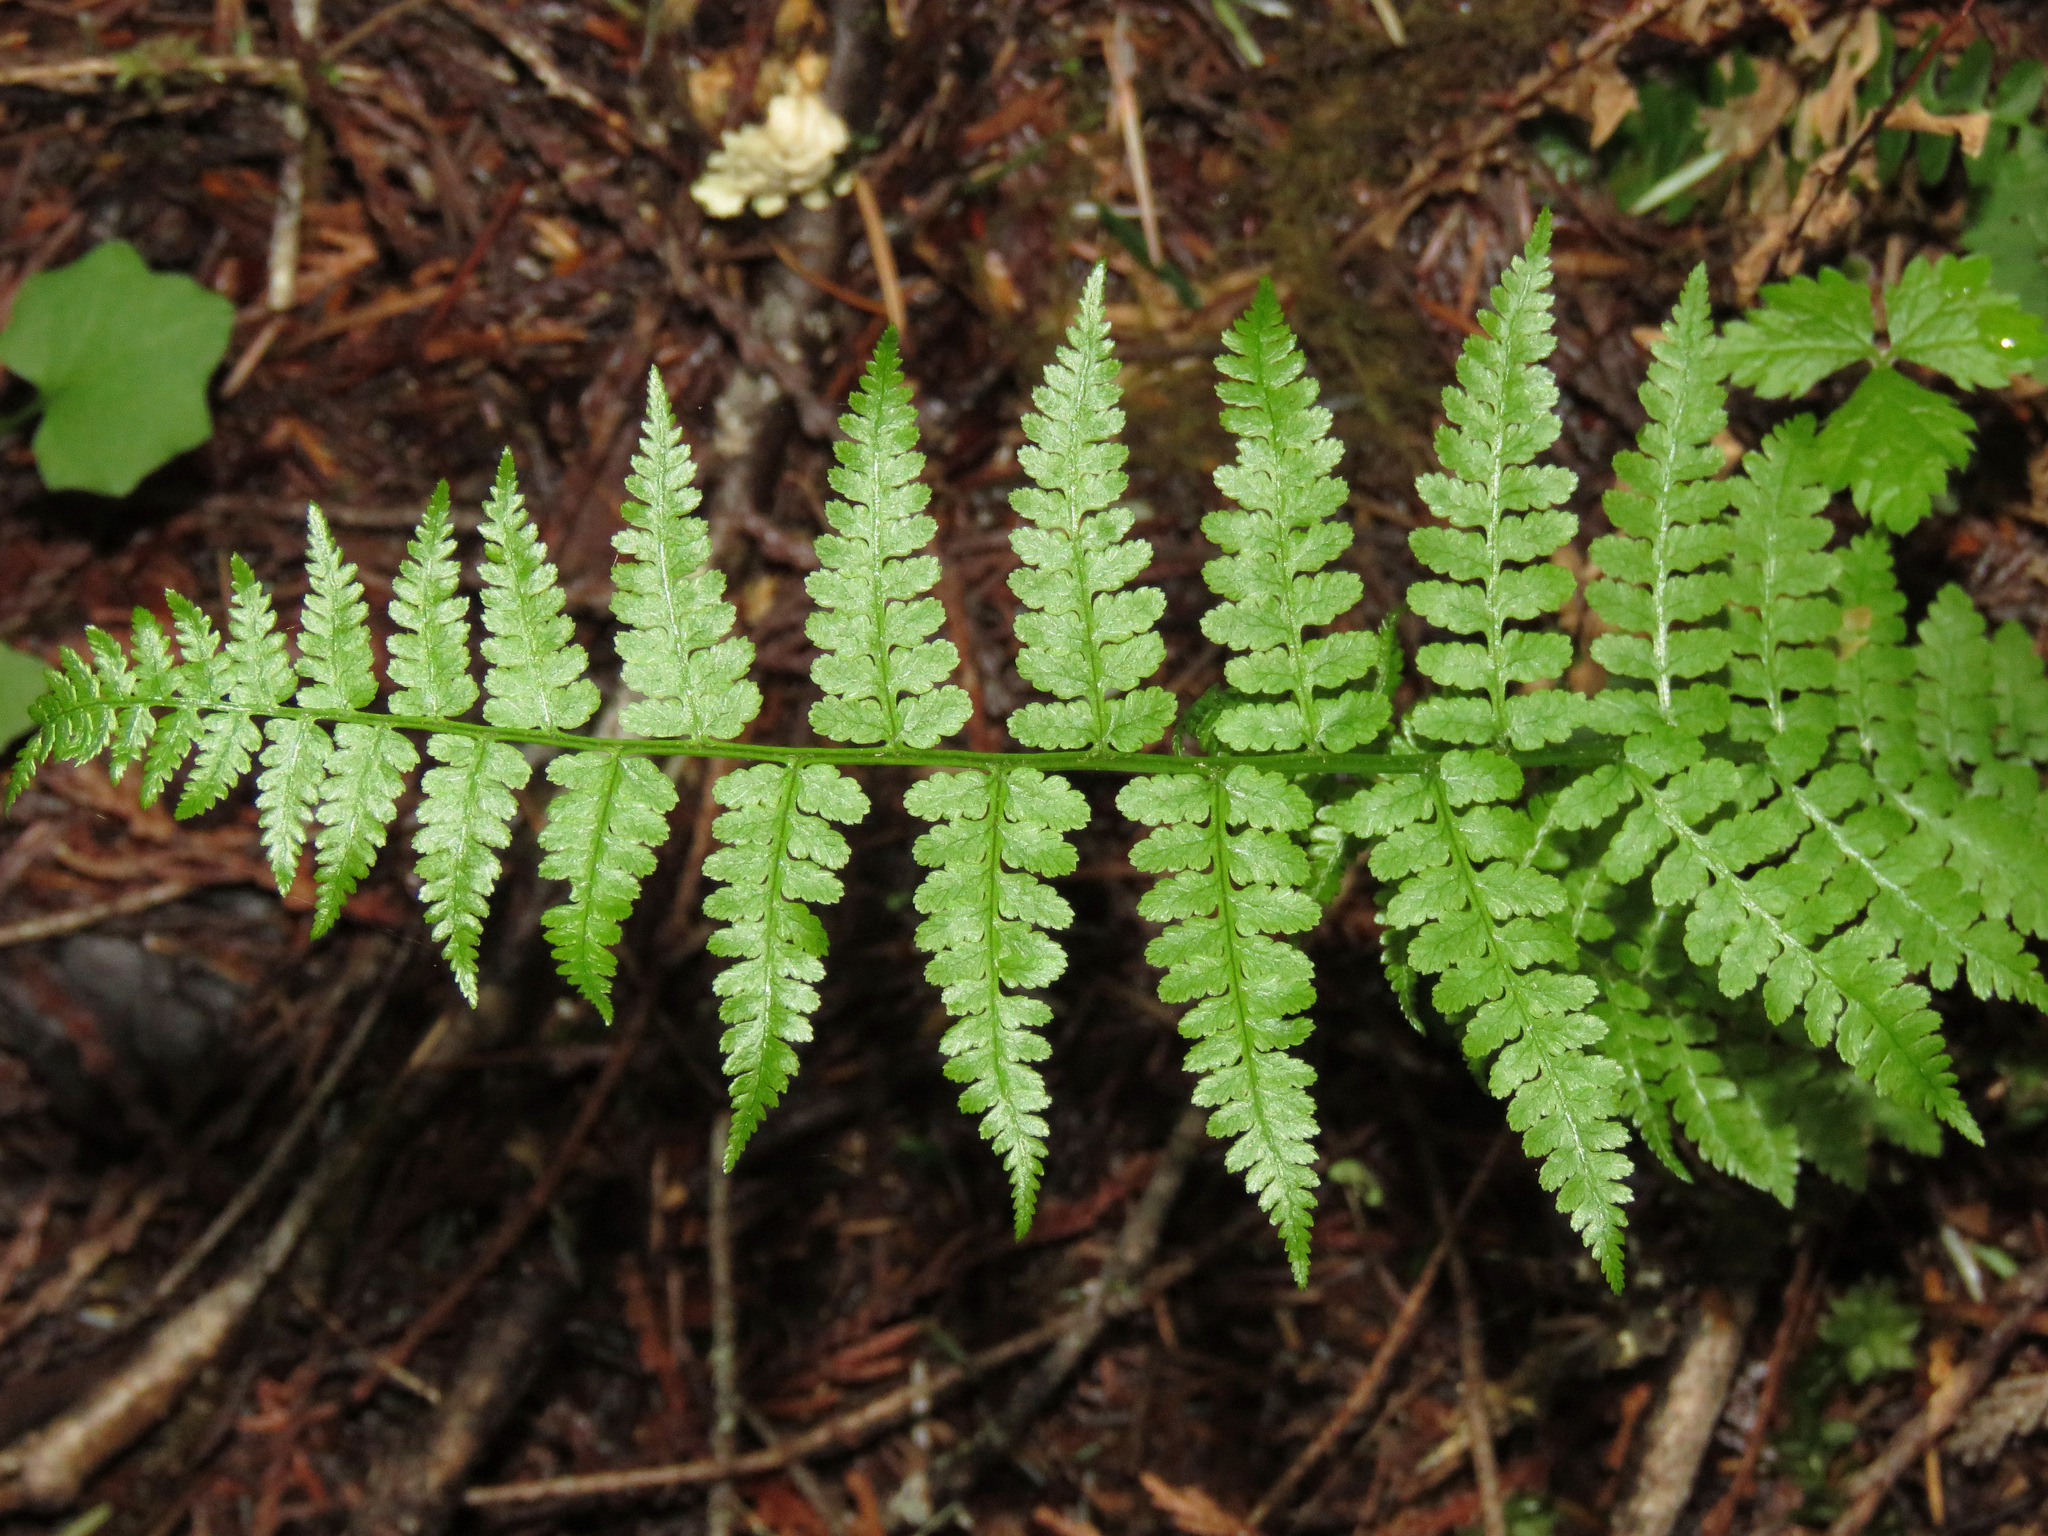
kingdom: Plantae
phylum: Tracheophyta
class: Polypodiopsida
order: Polypodiales
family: Athyriaceae
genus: Athyrium
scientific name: Athyrium filix-femina
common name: Lady fern
